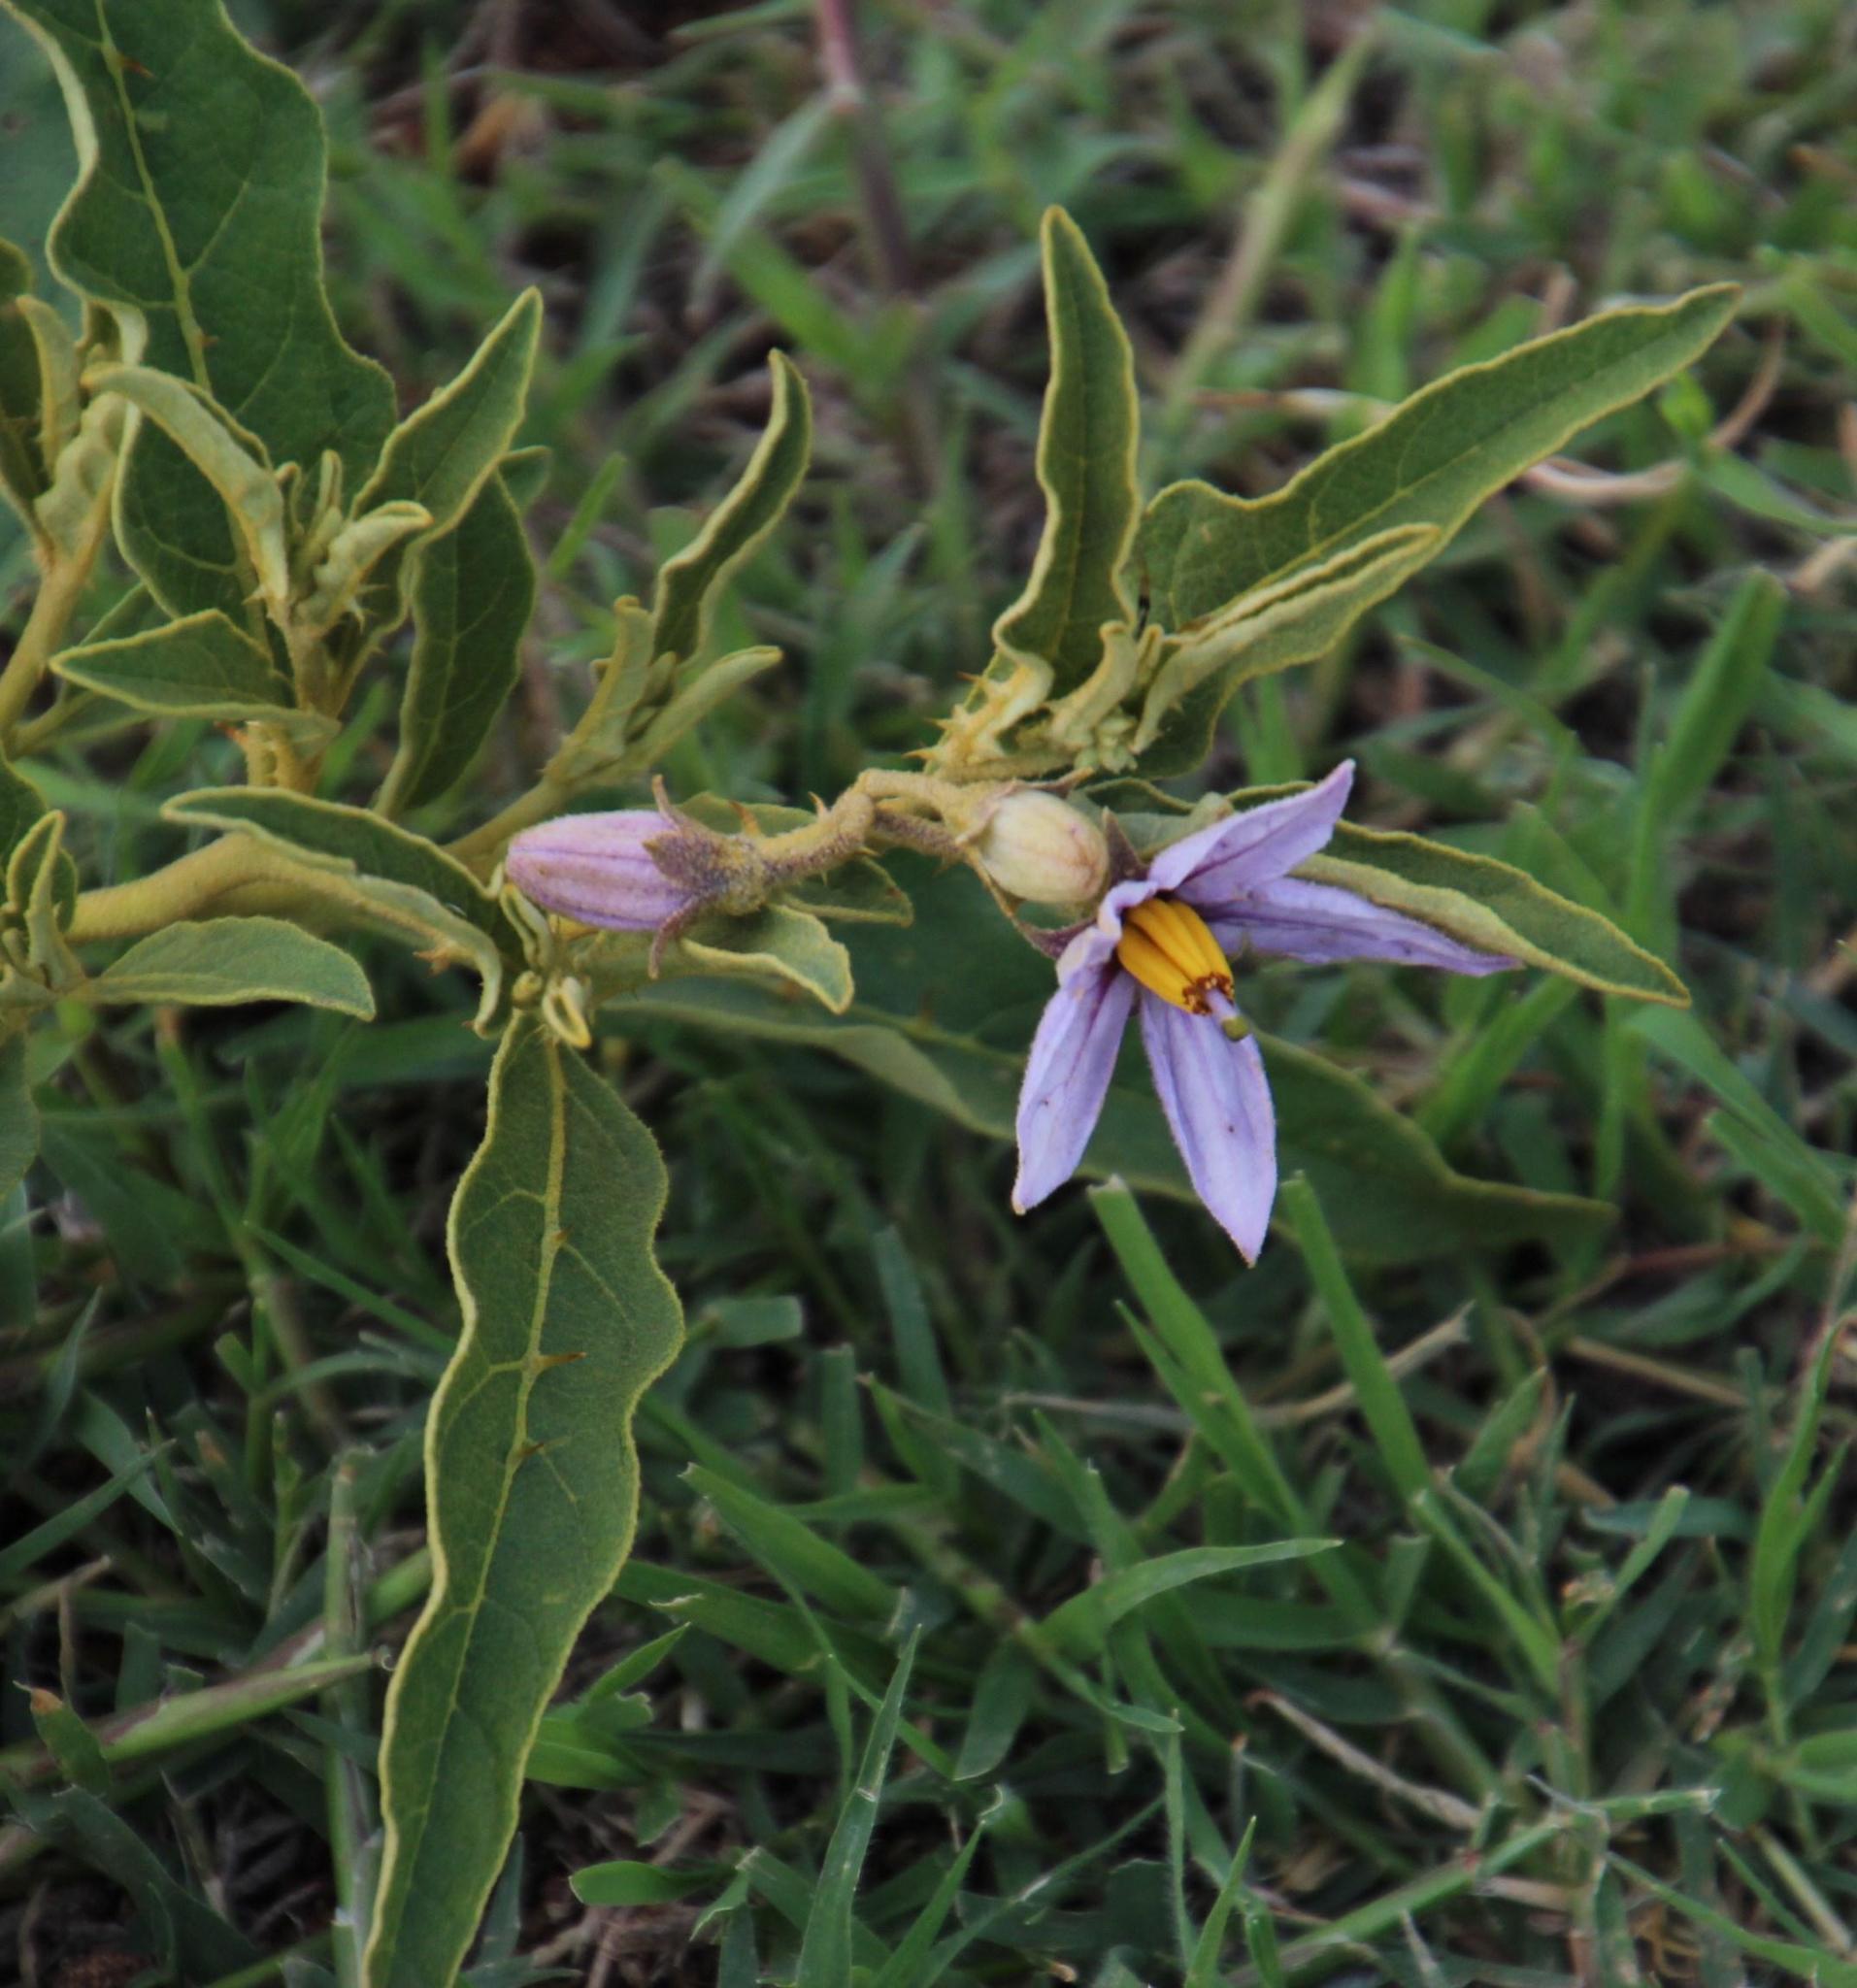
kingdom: Plantae
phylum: Tracheophyta
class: Magnoliopsida
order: Solanales
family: Solanaceae
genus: Solanum
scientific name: Solanum campylacanthum
